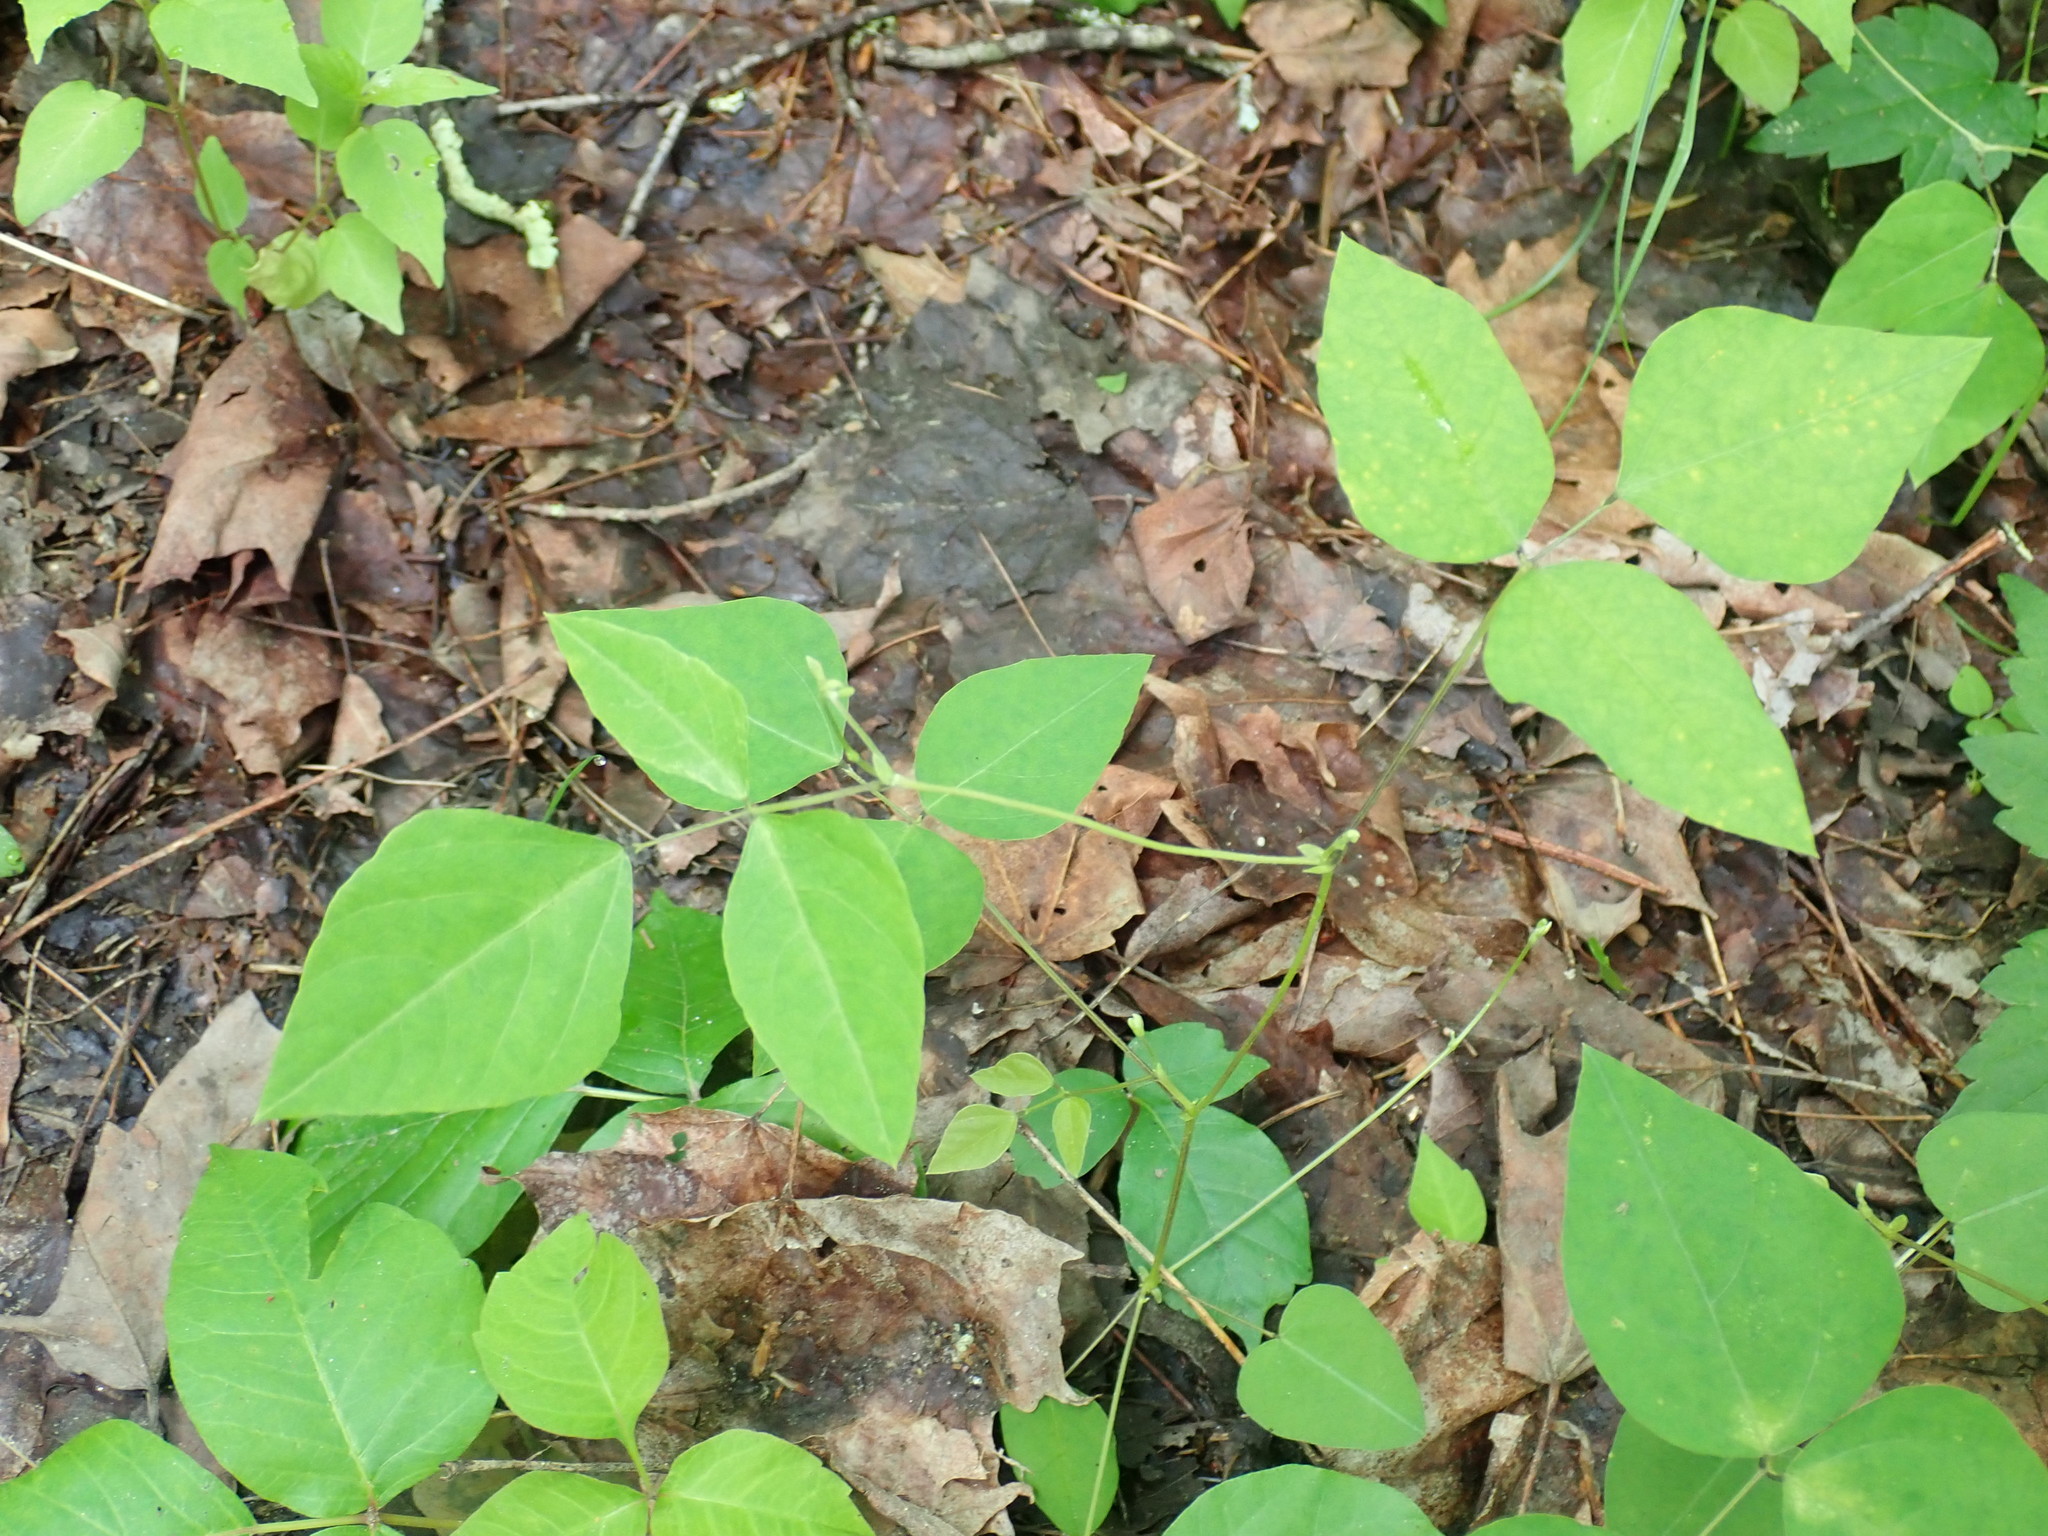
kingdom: Plantae
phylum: Tracheophyta
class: Magnoliopsida
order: Fabales
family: Fabaceae
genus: Amphicarpaea
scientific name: Amphicarpaea bracteata
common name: American hog peanut
